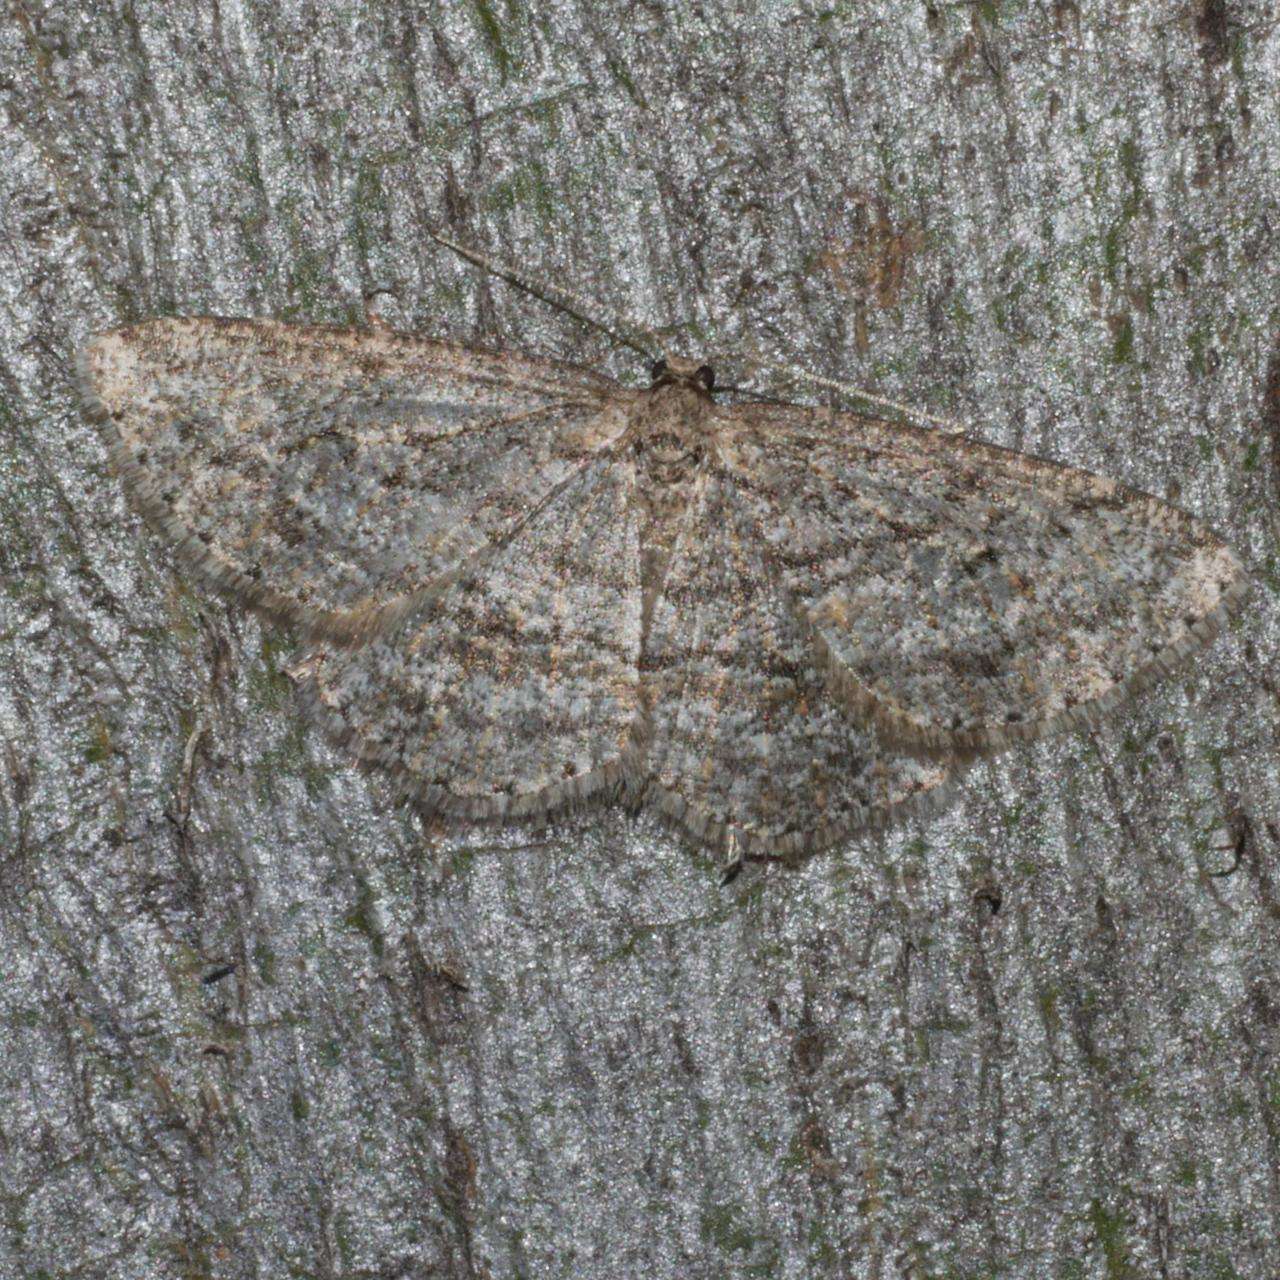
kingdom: Animalia
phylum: Arthropoda
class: Insecta
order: Lepidoptera
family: Geometridae
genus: Zermizinga
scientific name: Zermizinga sinuata
